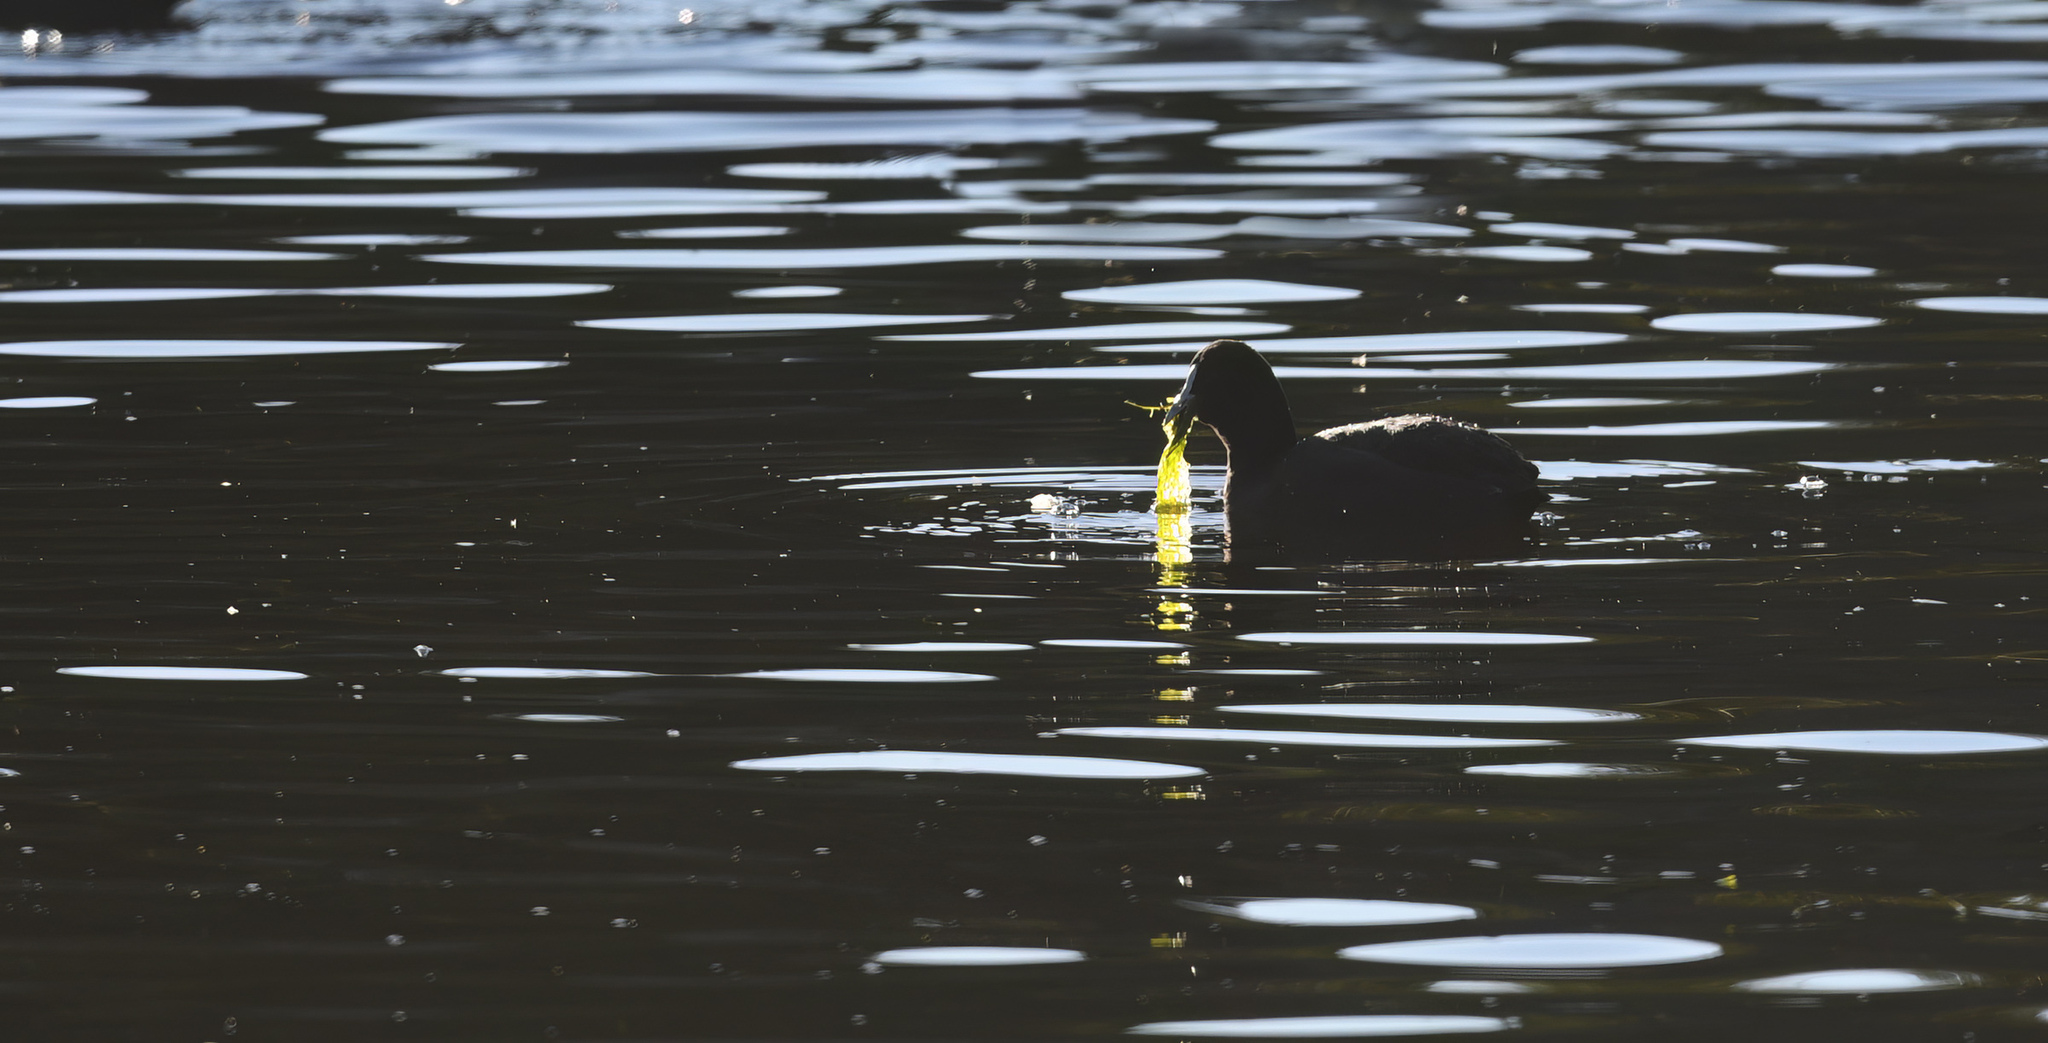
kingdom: Animalia
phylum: Chordata
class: Aves
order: Gruiformes
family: Rallidae
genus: Fulica
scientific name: Fulica atra
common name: Eurasian coot
